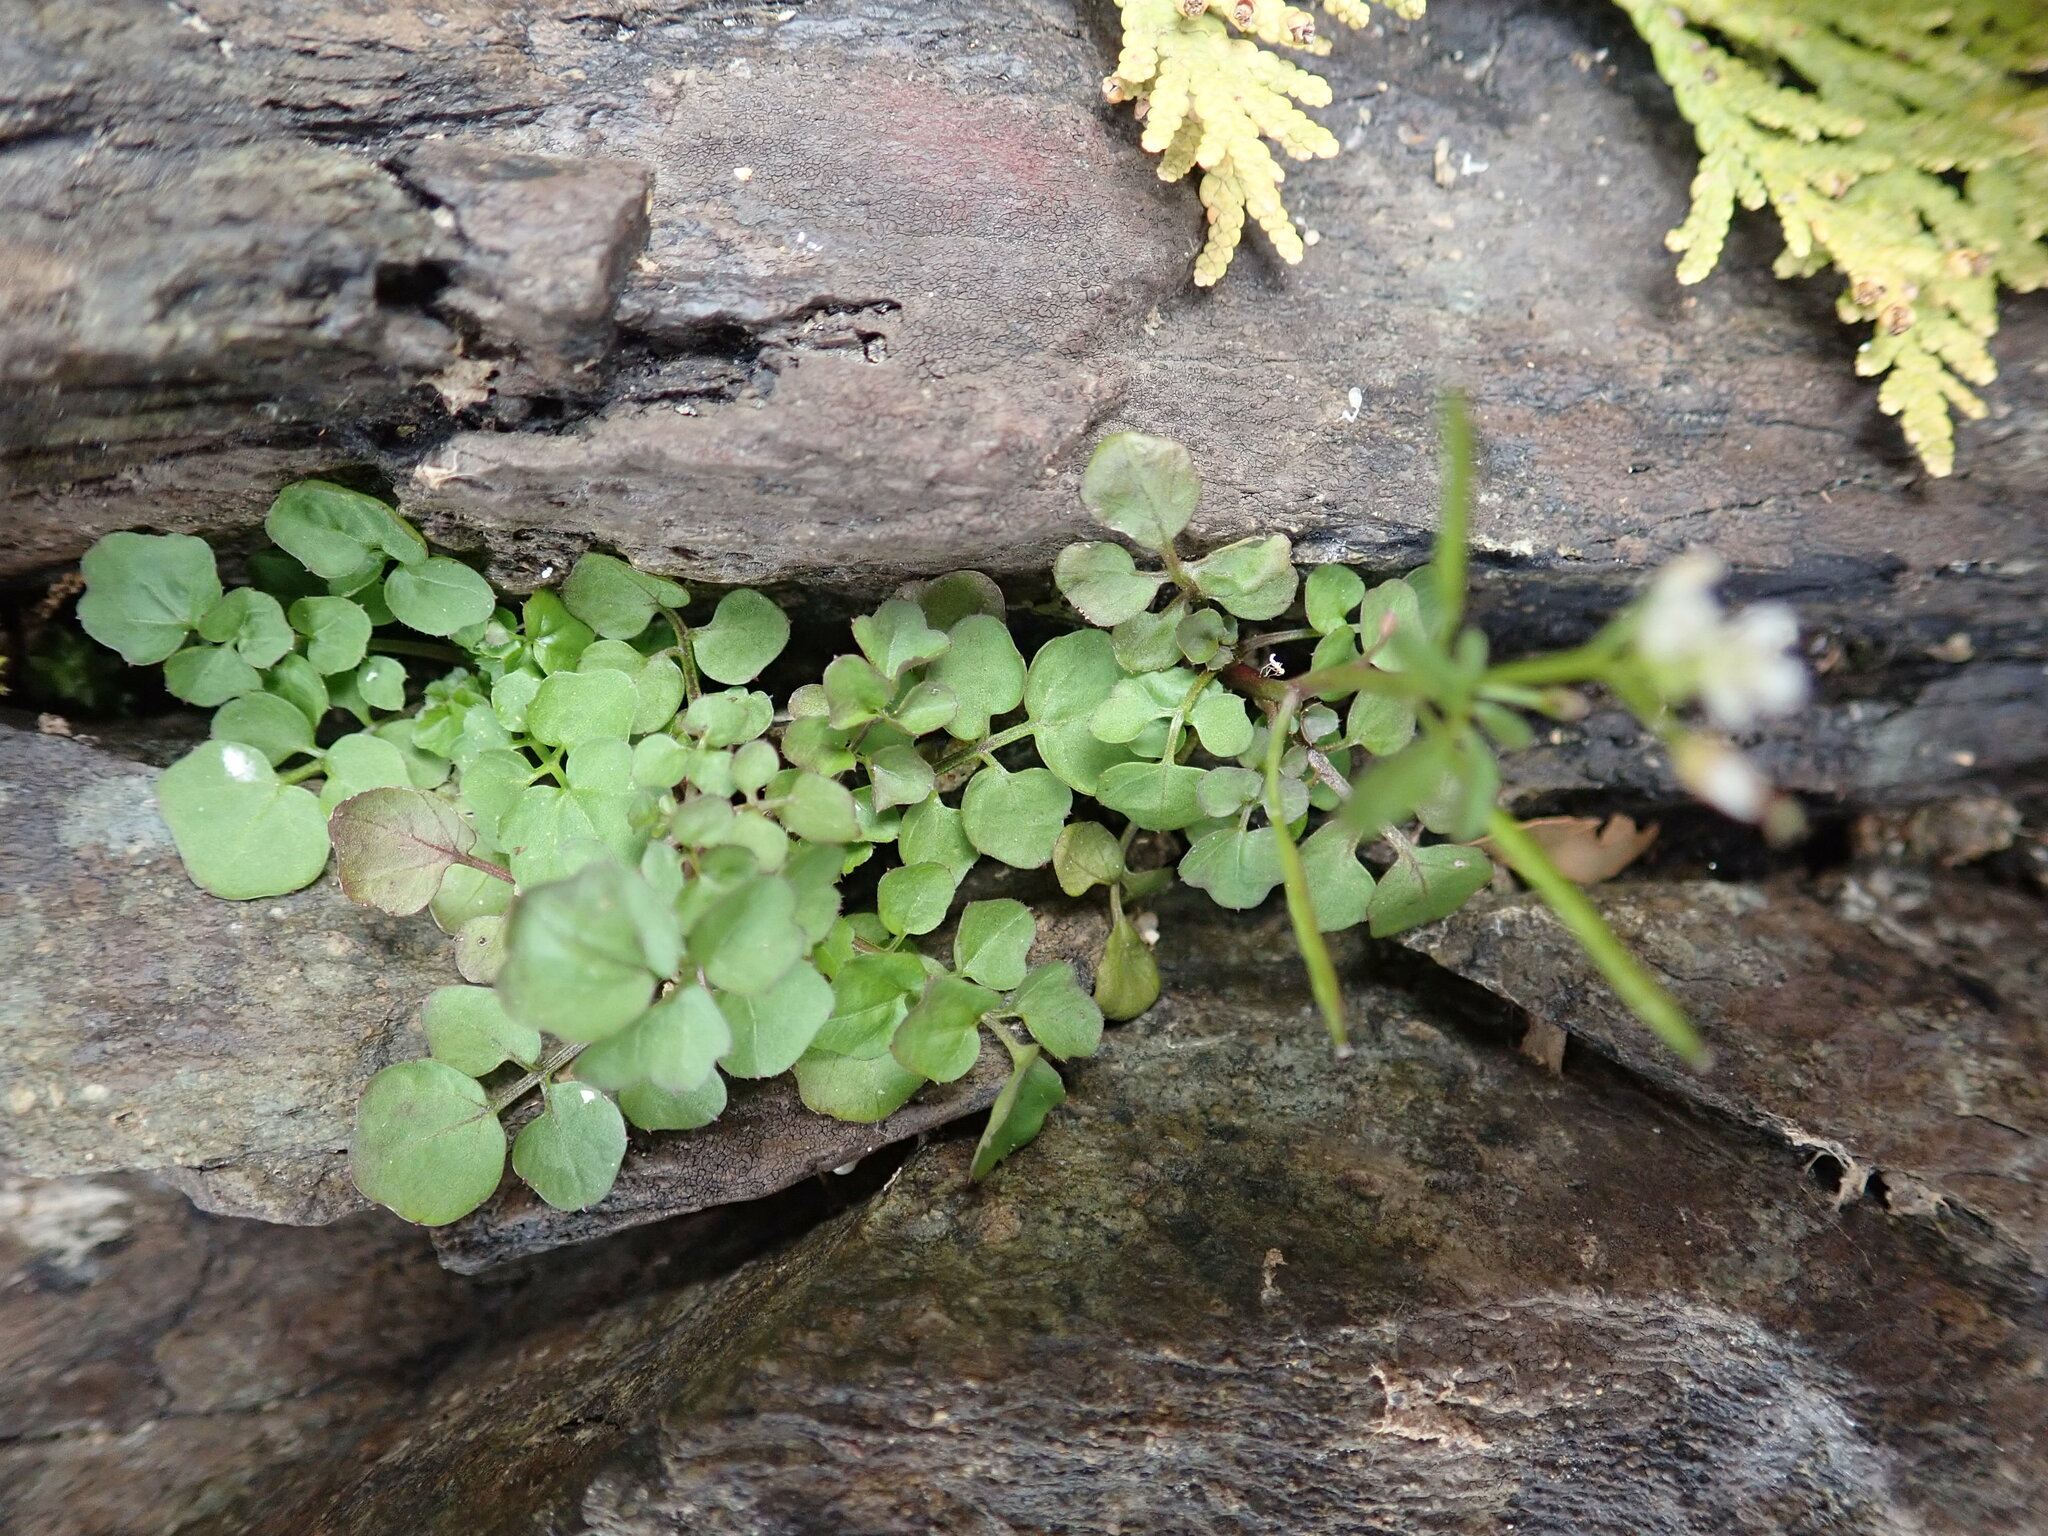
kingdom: Plantae
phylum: Tracheophyta
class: Magnoliopsida
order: Brassicales
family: Brassicaceae
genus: Cardamine
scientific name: Cardamine pensylvanica
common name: Pennsylvania bittercress
